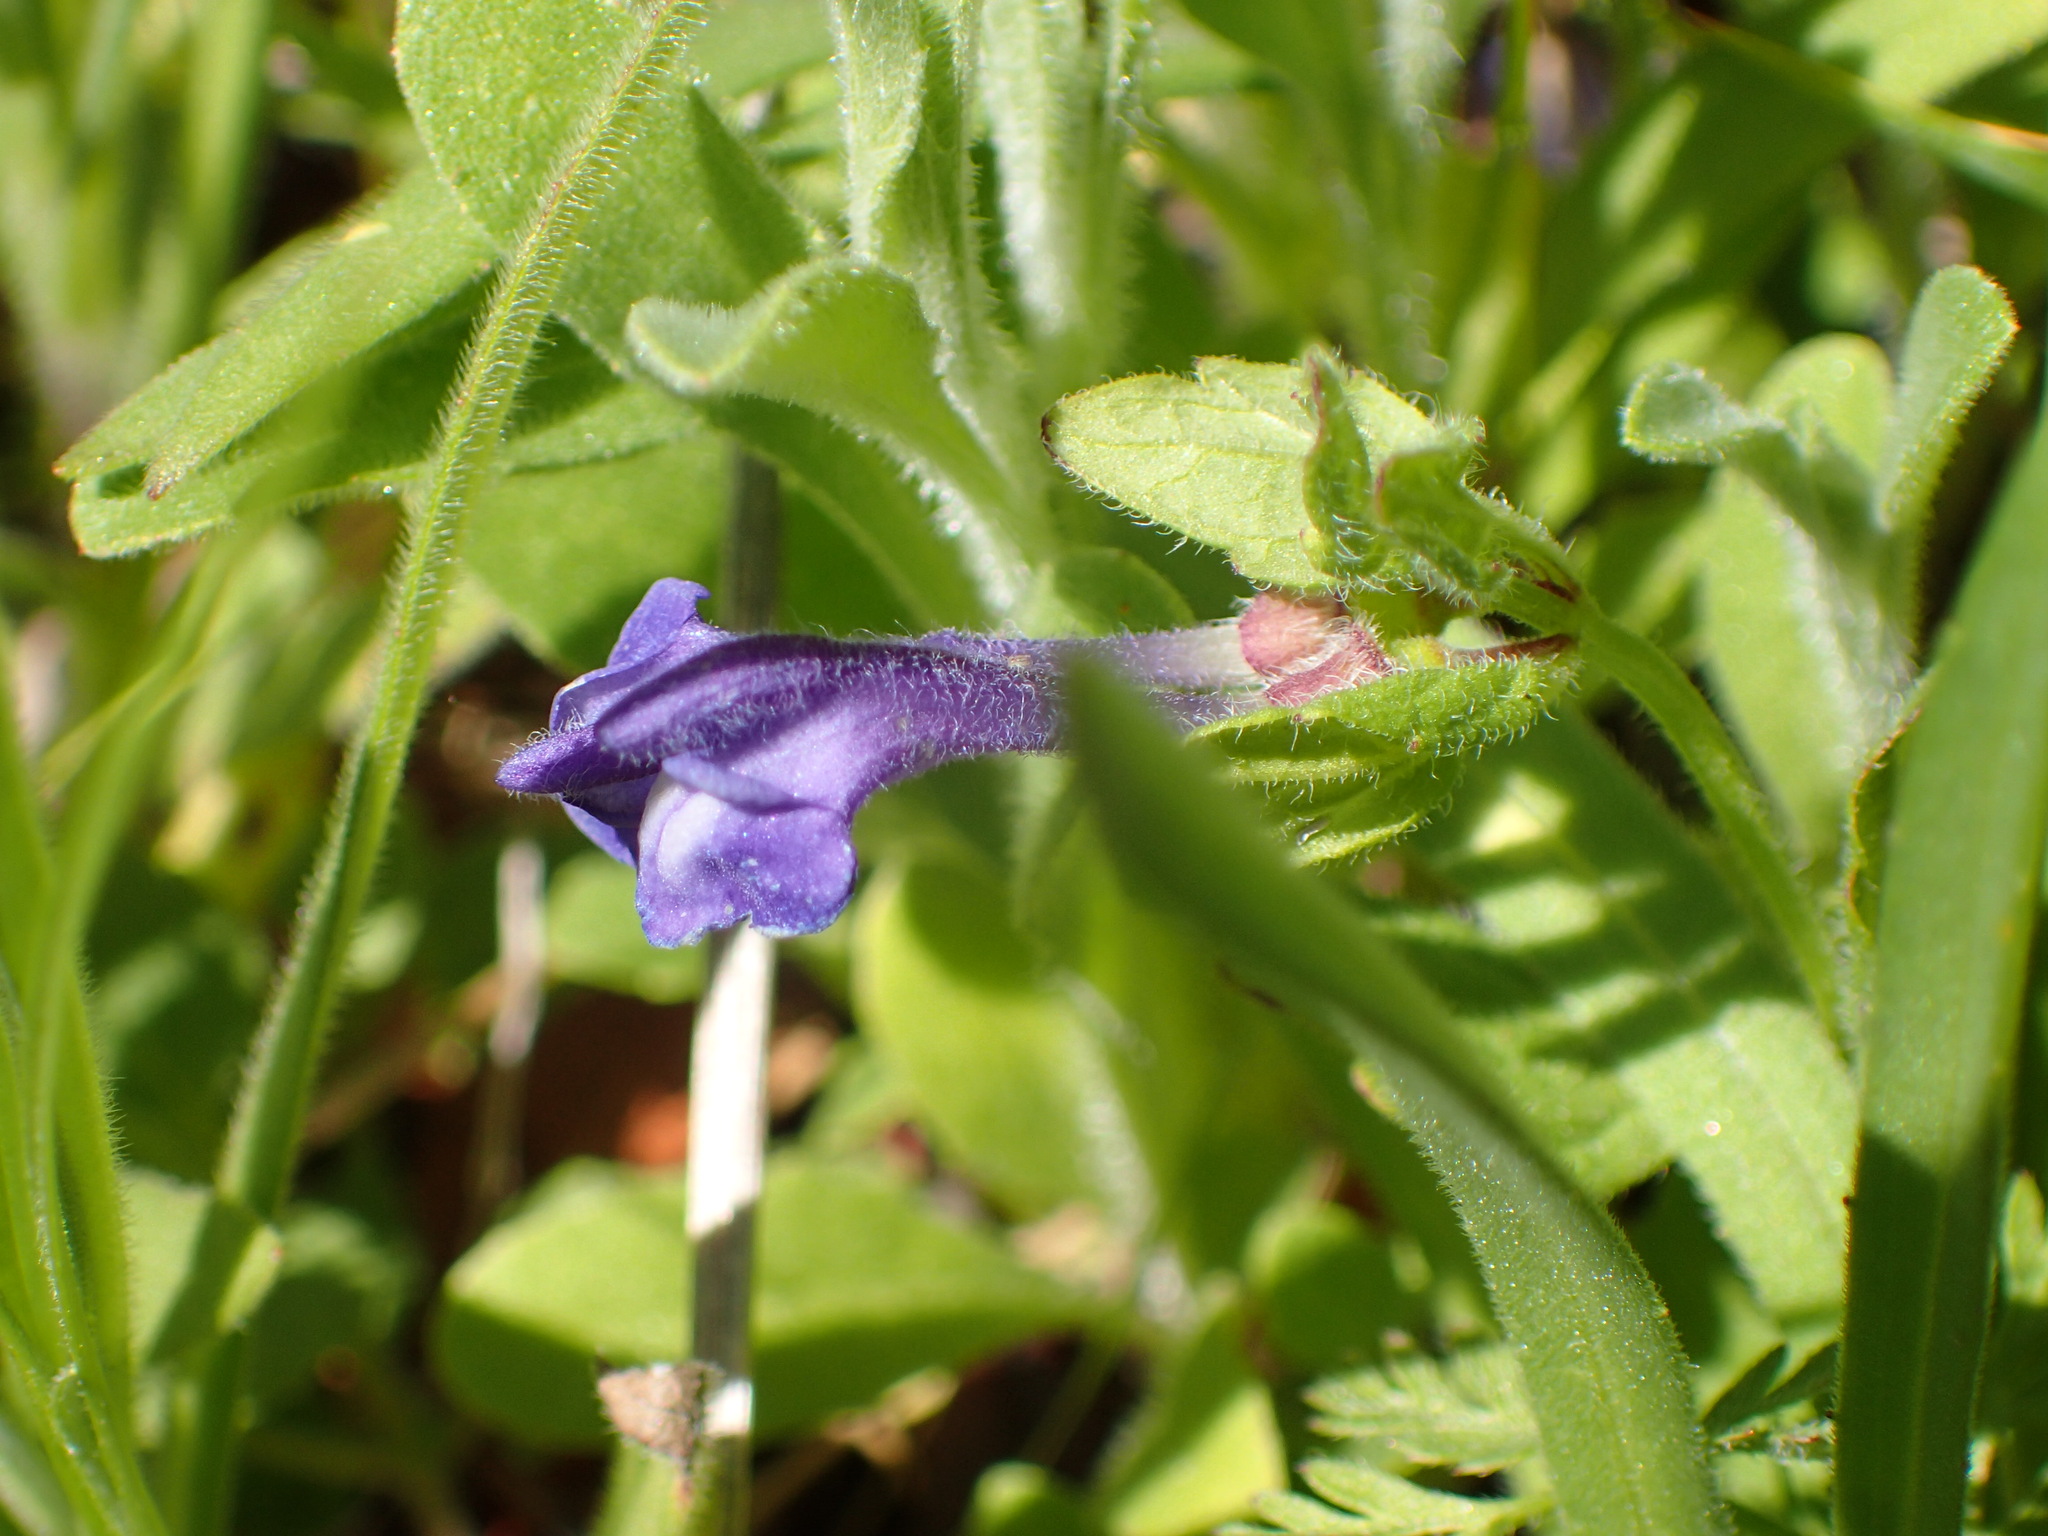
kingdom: Plantae
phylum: Tracheophyta
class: Magnoliopsida
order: Lamiales
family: Lamiaceae
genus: Scutellaria
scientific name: Scutellaria tuberosa
